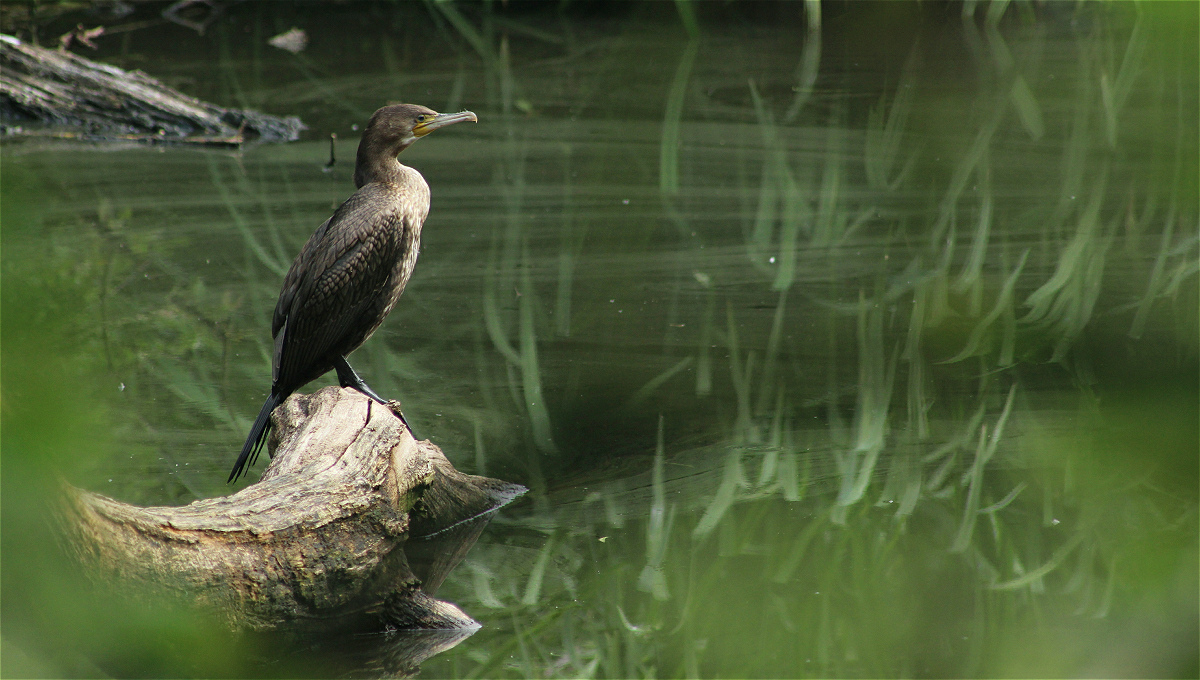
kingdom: Animalia
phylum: Chordata
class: Aves
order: Suliformes
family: Phalacrocoracidae
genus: Phalacrocorax
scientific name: Phalacrocorax carbo
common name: Great cormorant
